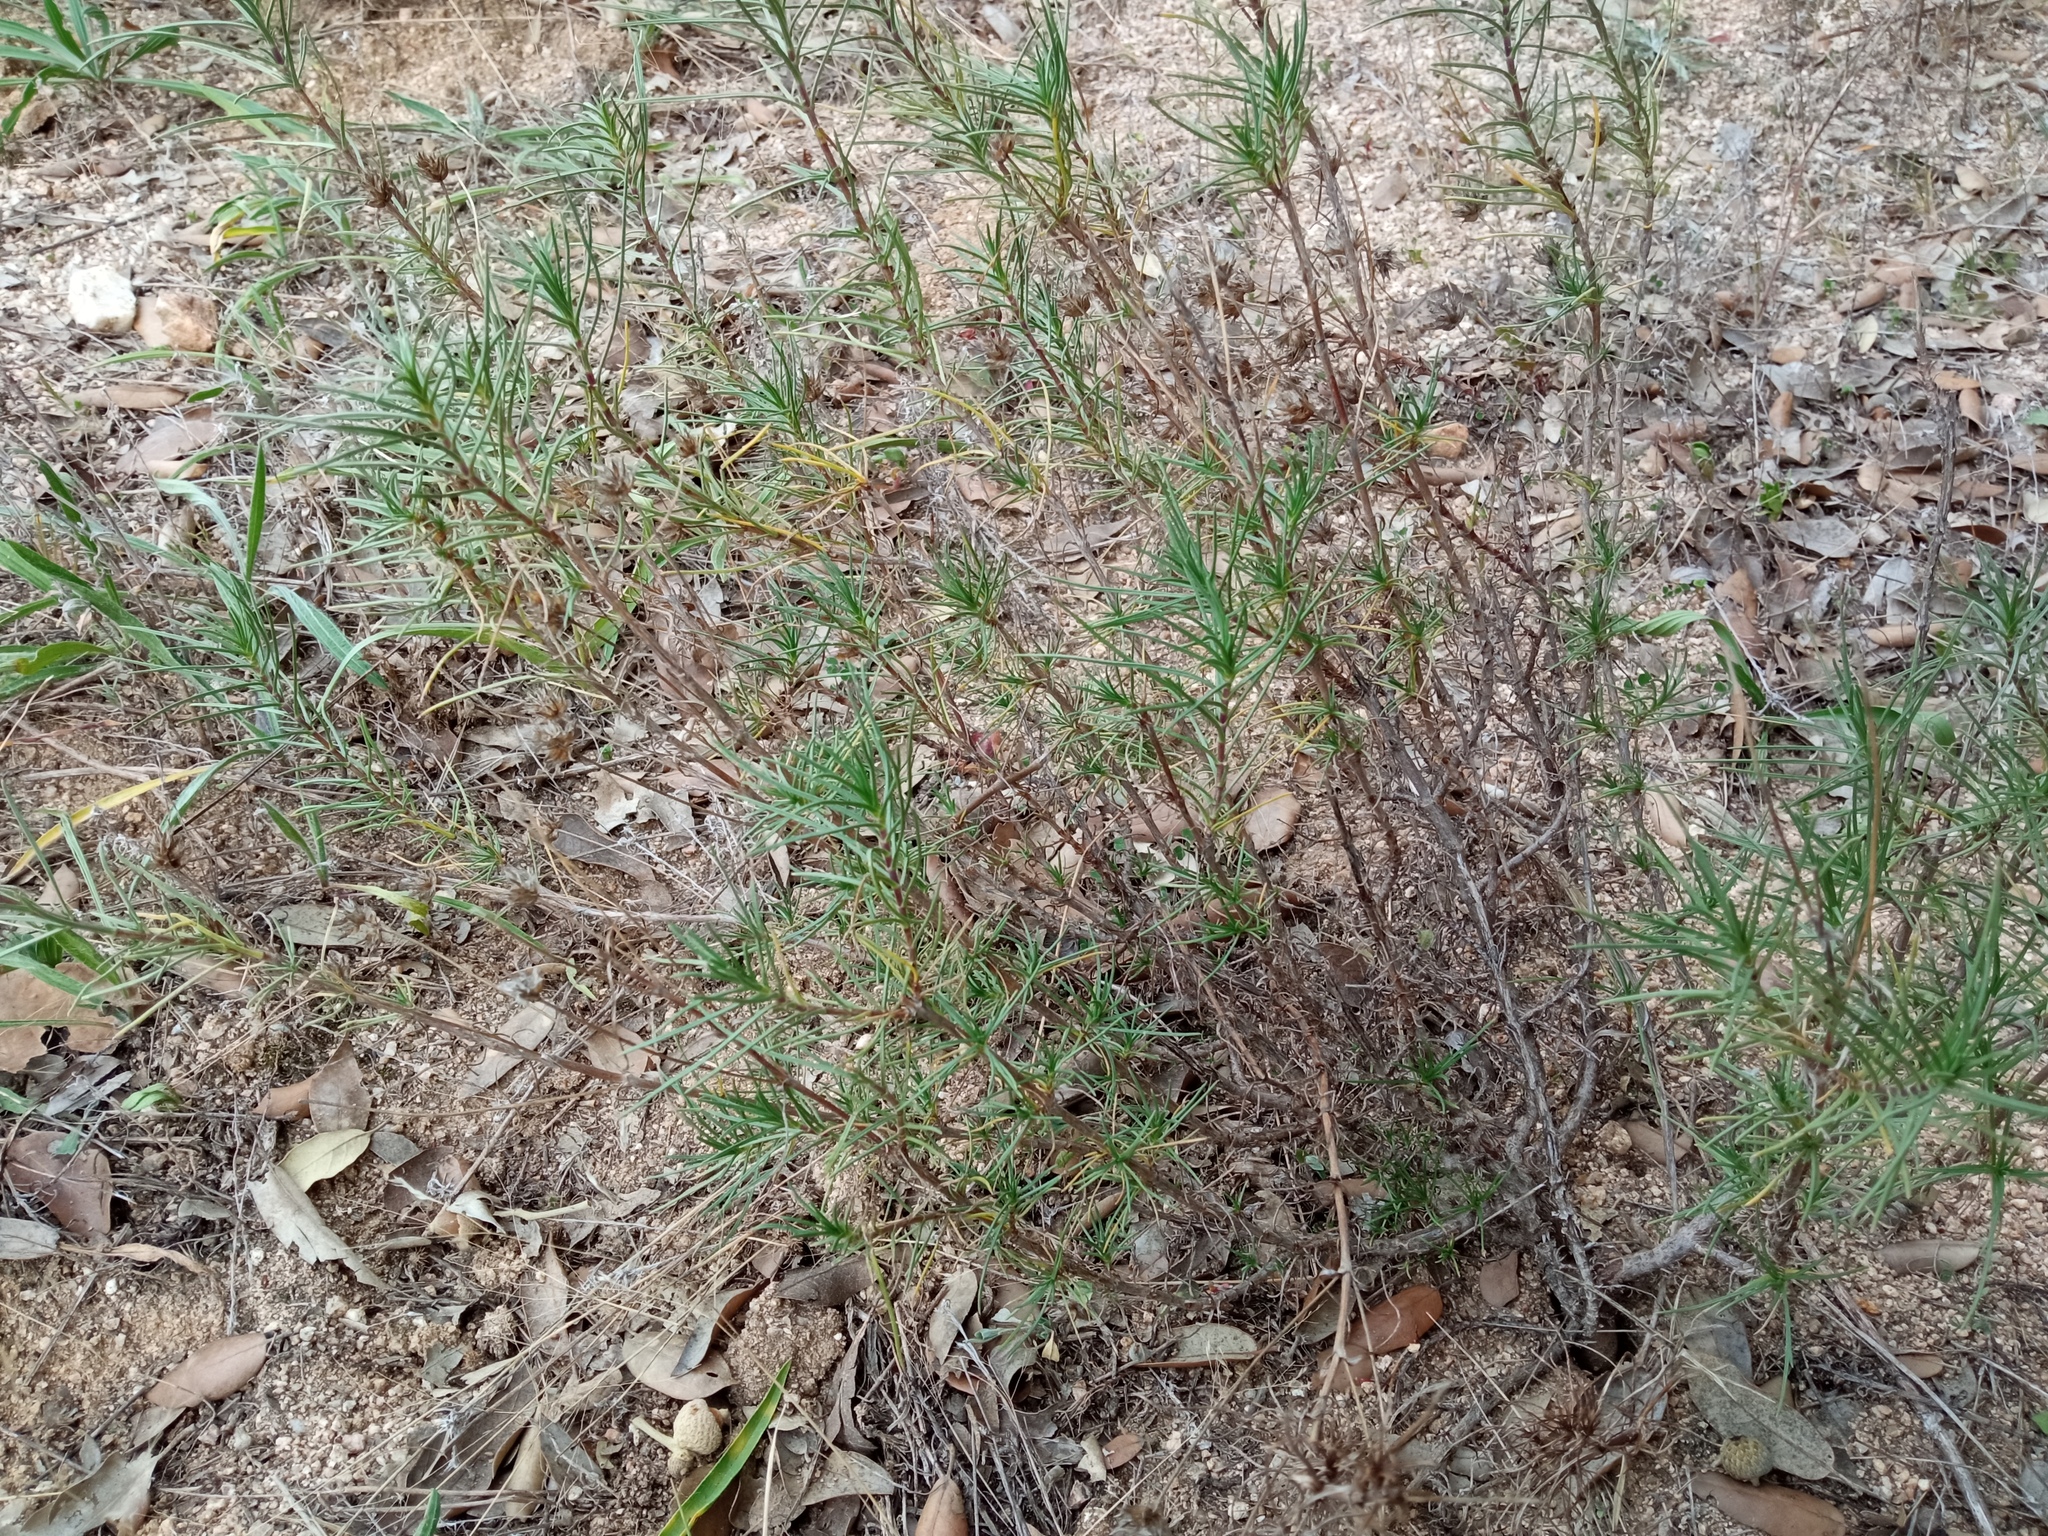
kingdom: Plantae
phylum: Tracheophyta
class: Magnoliopsida
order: Lamiales
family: Plantaginaceae
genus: Plantago
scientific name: Plantago sempervirens
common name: Shrubby plantain
